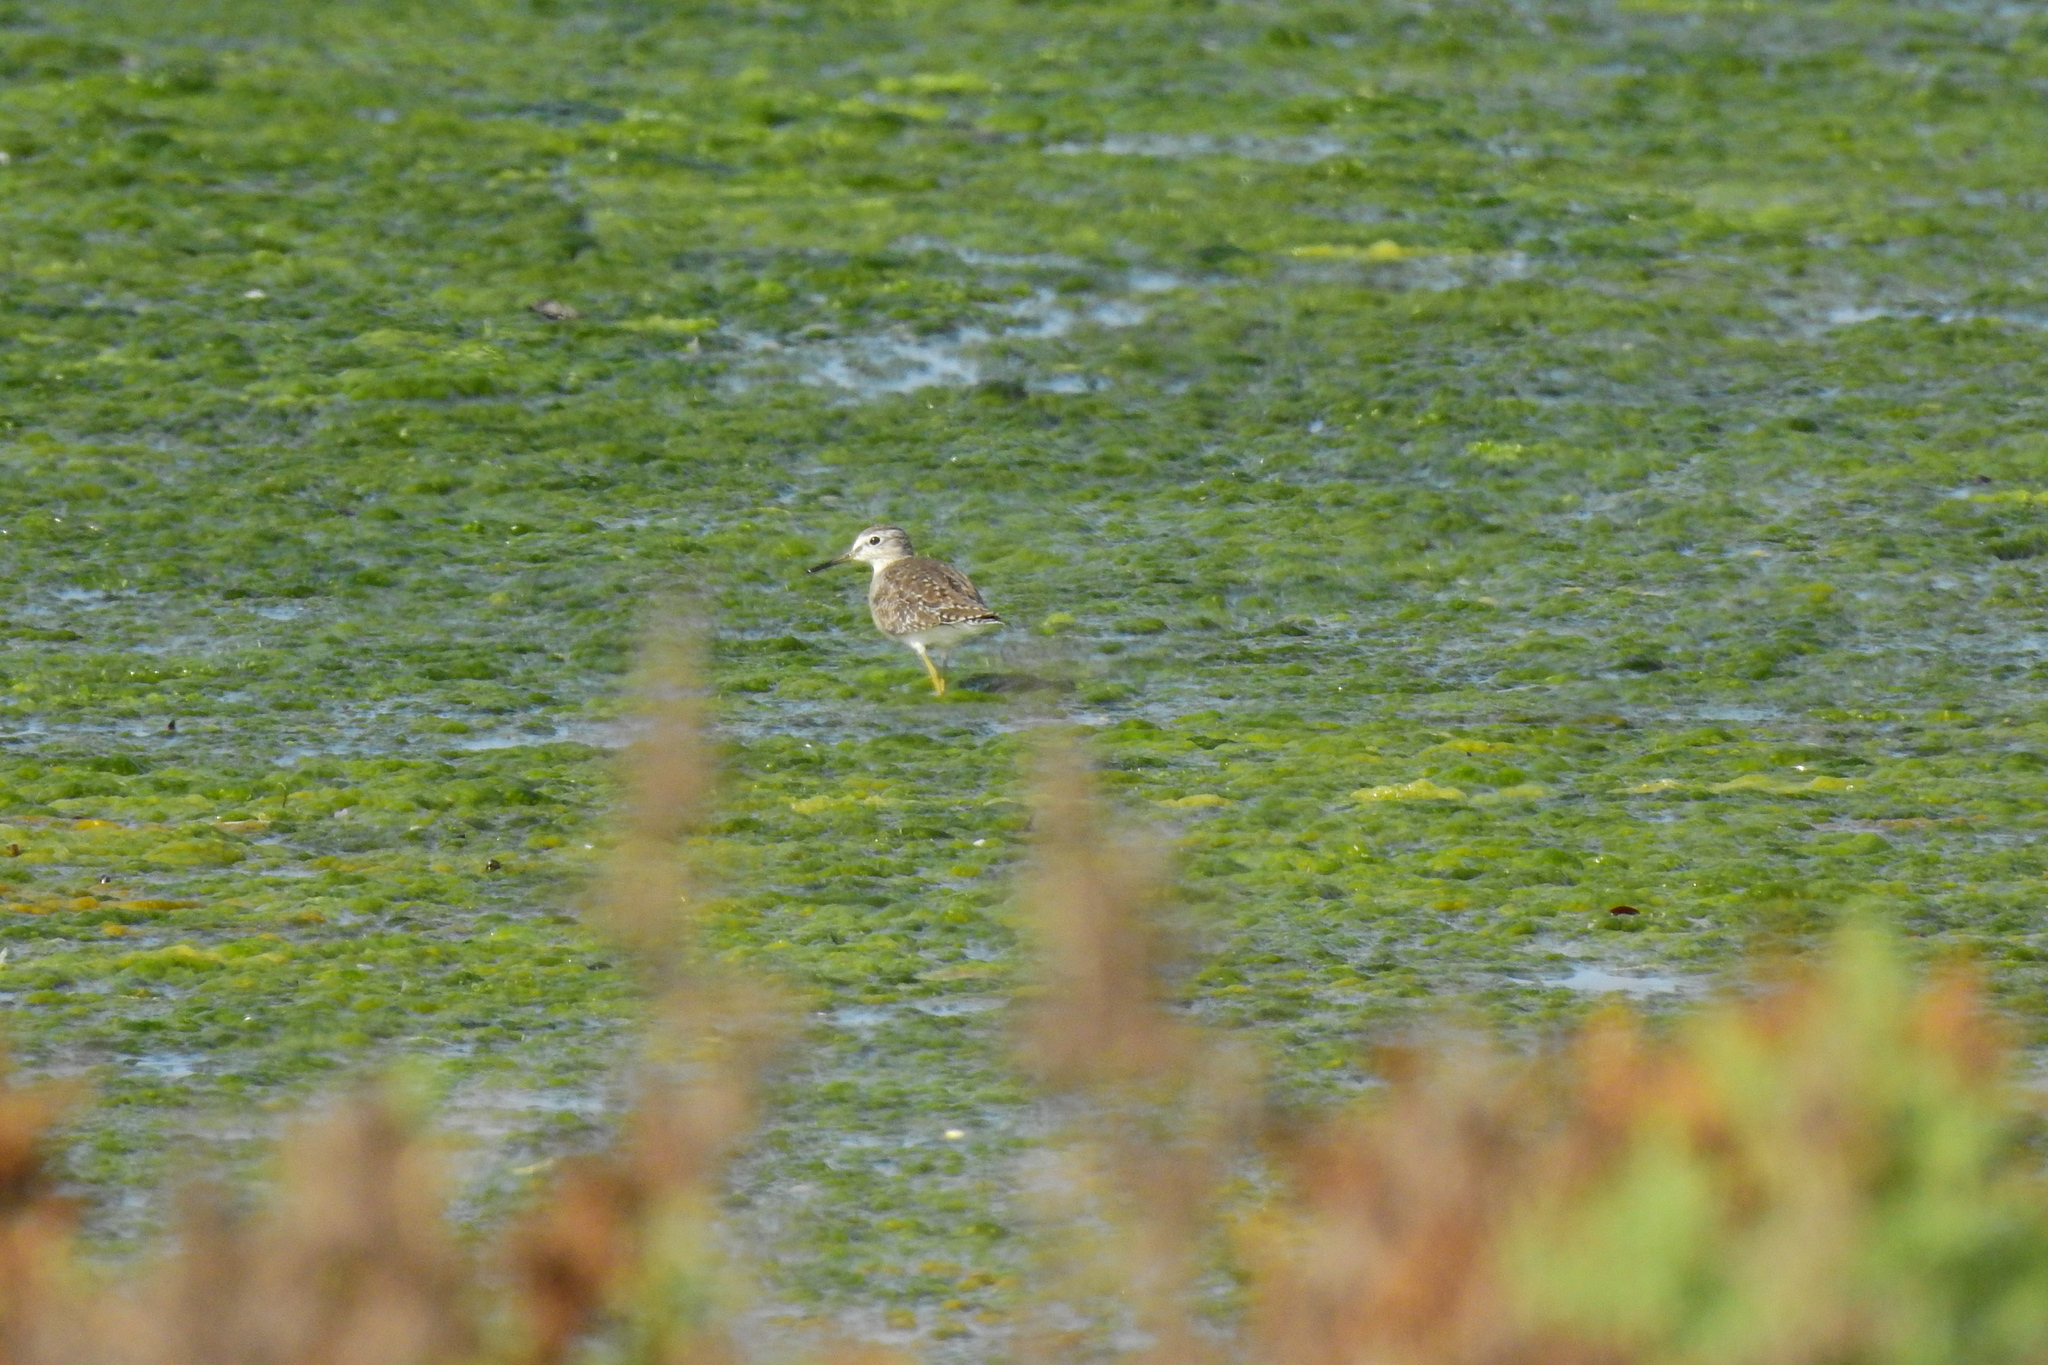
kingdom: Animalia
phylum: Chordata
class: Aves
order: Charadriiformes
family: Scolopacidae
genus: Tringa
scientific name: Tringa glareola
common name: Wood sandpiper
